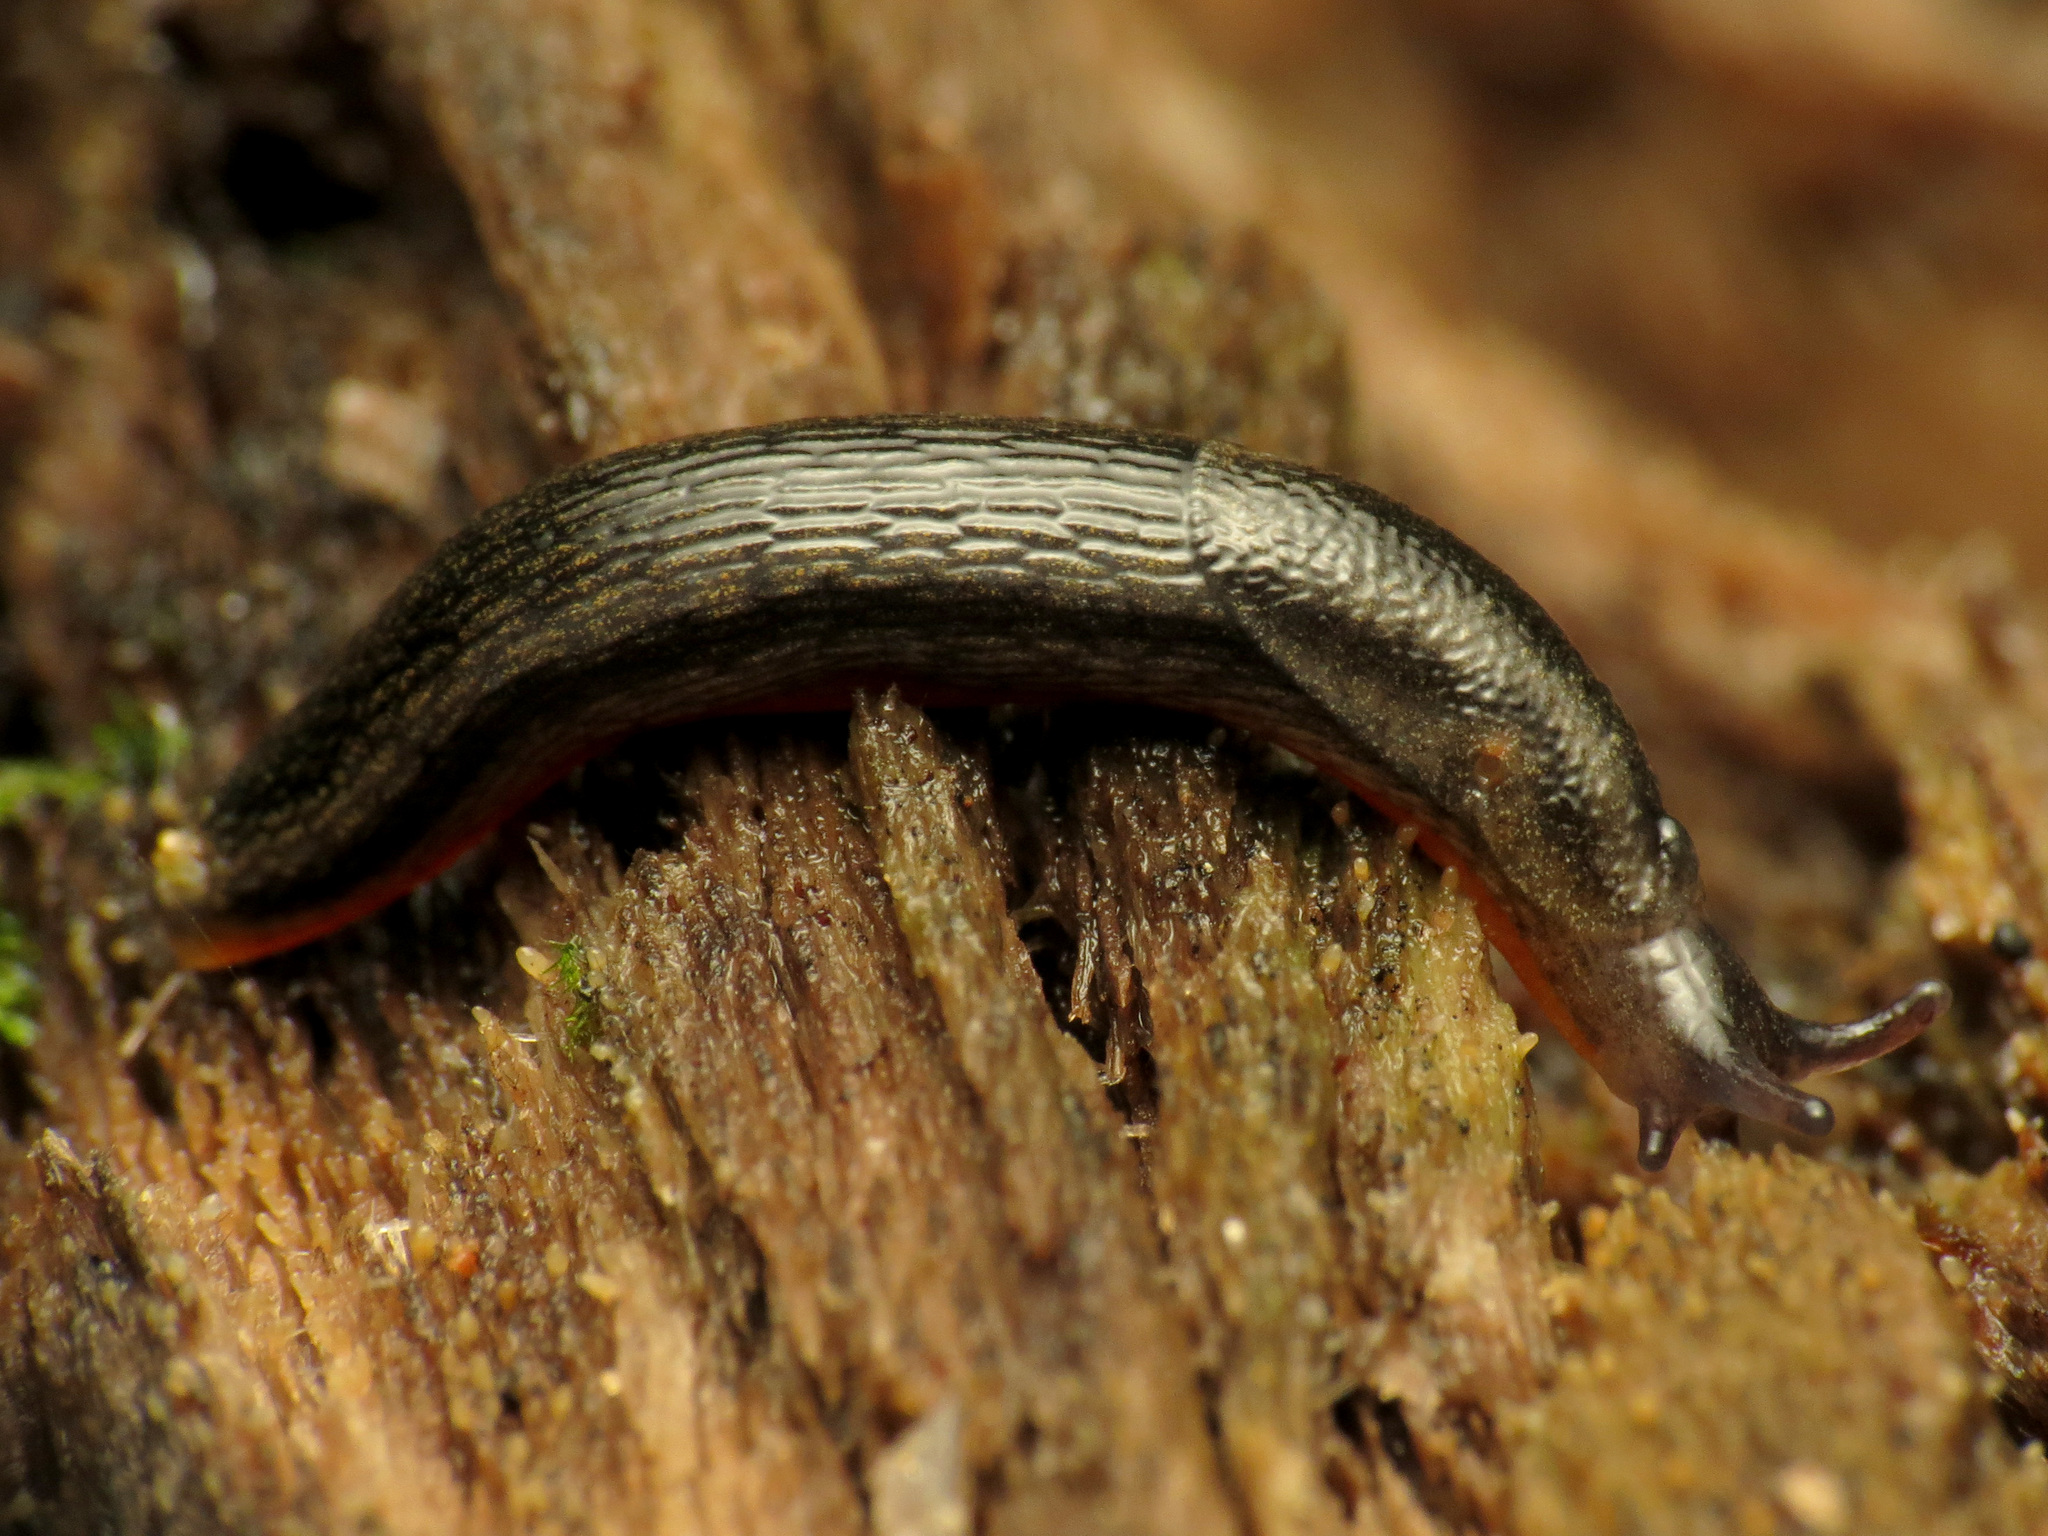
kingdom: Animalia
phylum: Mollusca
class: Gastropoda
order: Stylommatophora
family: Arionidae
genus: Arion
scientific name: Arion hortensis
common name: Garden arion
